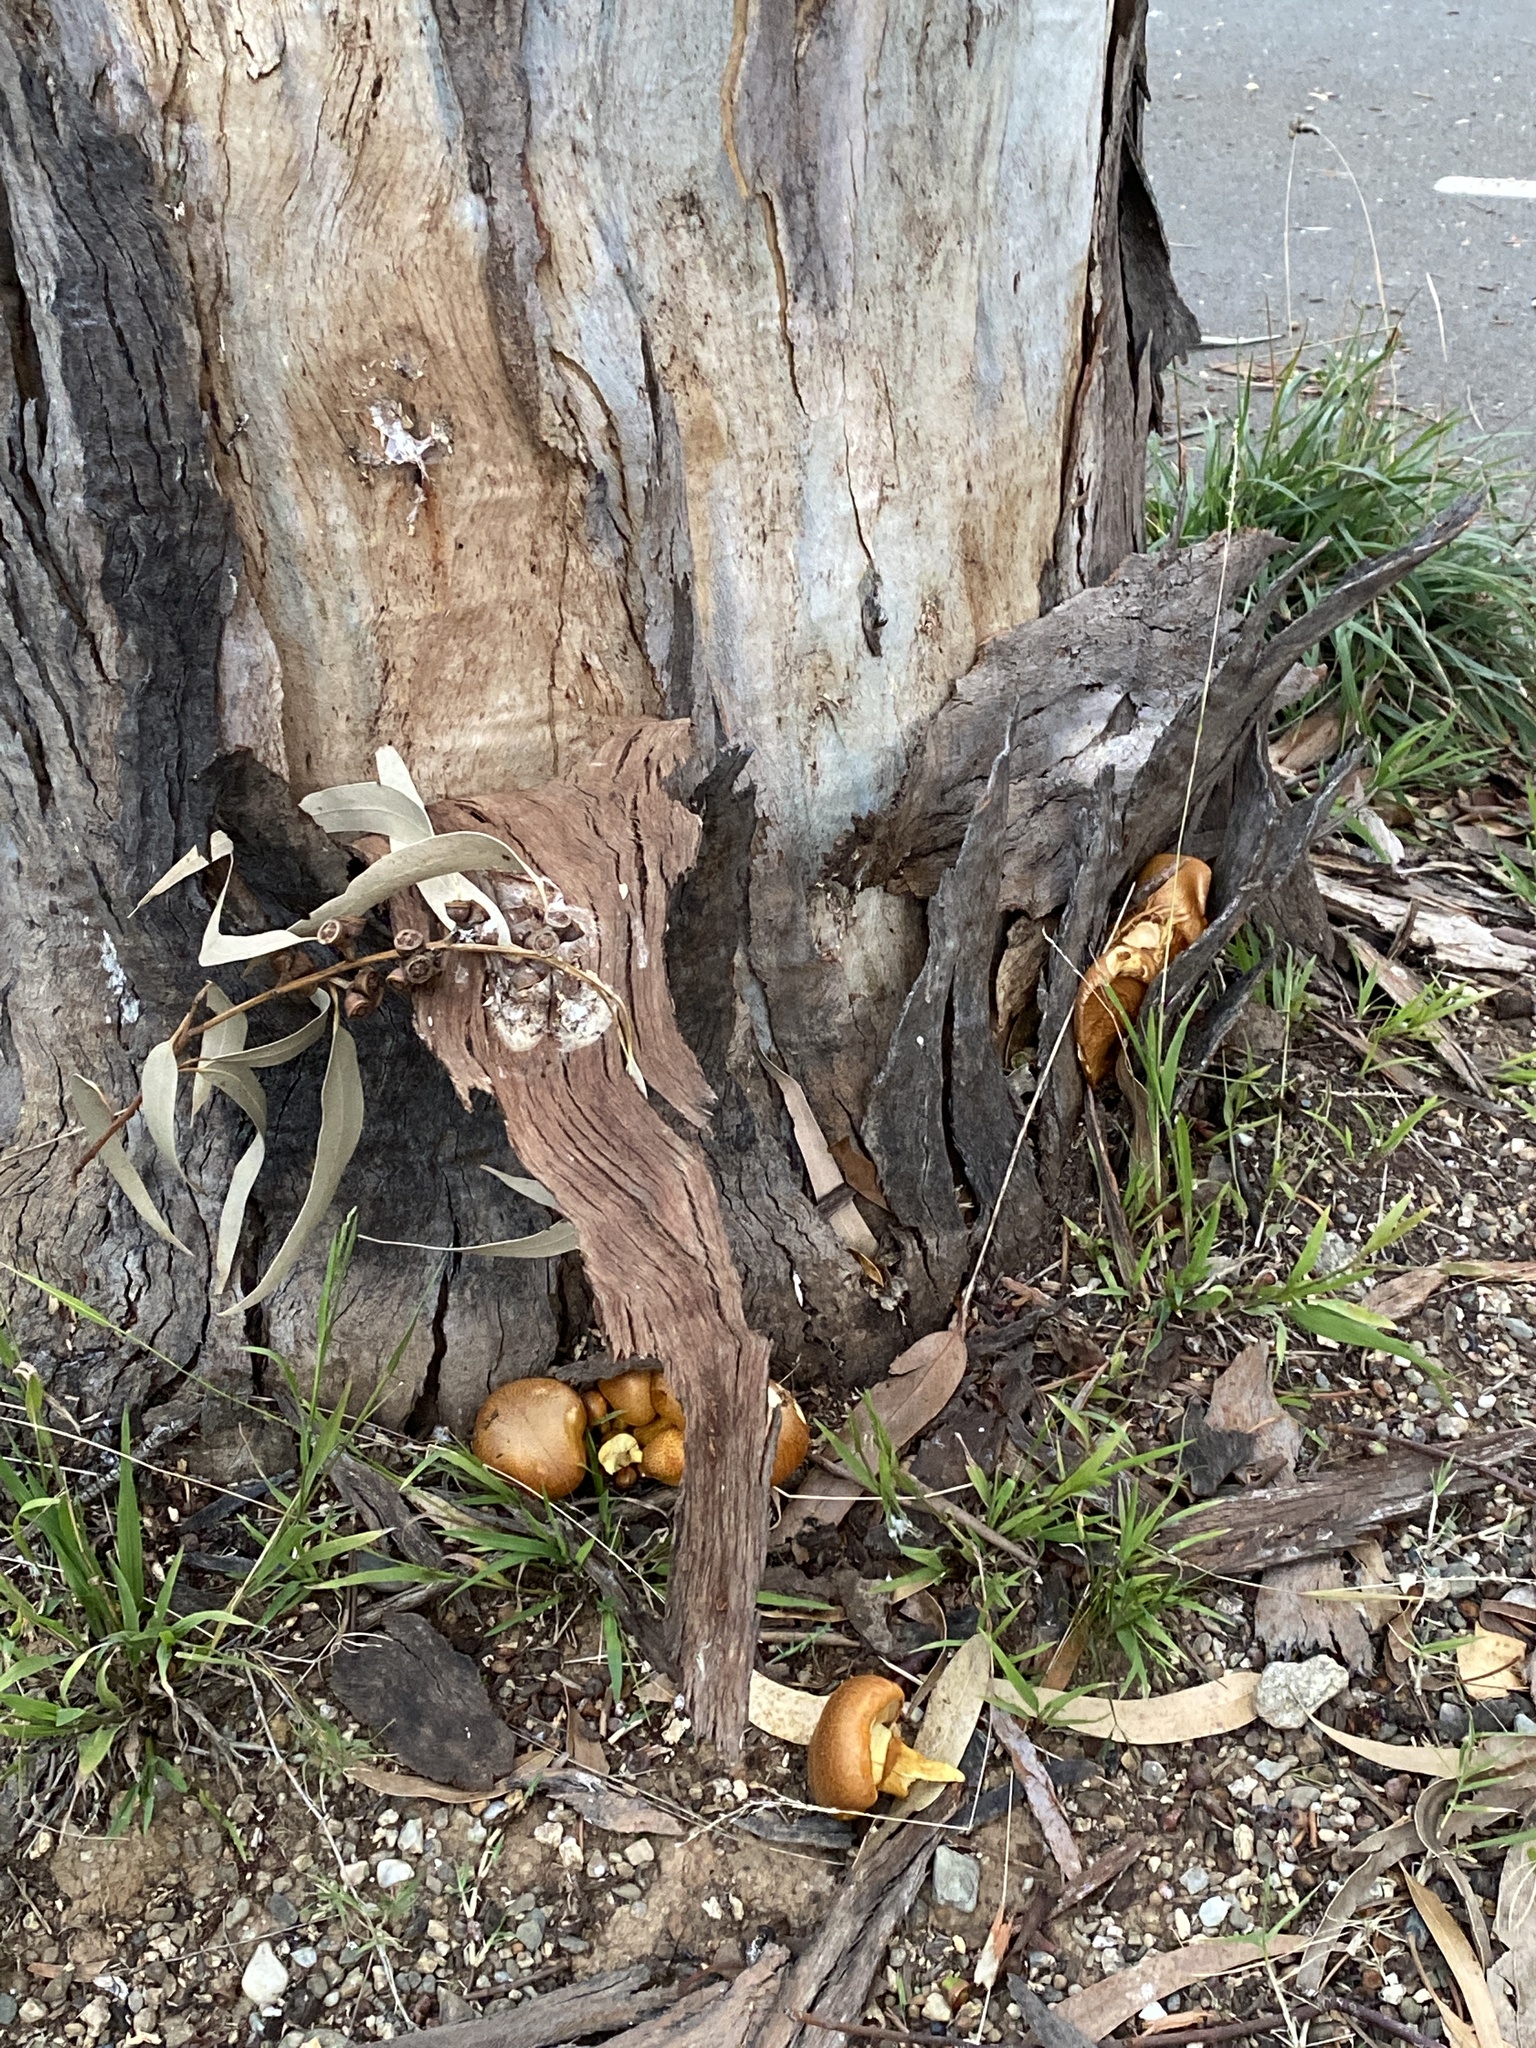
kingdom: Fungi
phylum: Basidiomycota
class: Agaricomycetes
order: Agaricales
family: Hymenogastraceae
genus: Gymnopilus
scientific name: Gymnopilus junonius
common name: Spectacular rustgill
